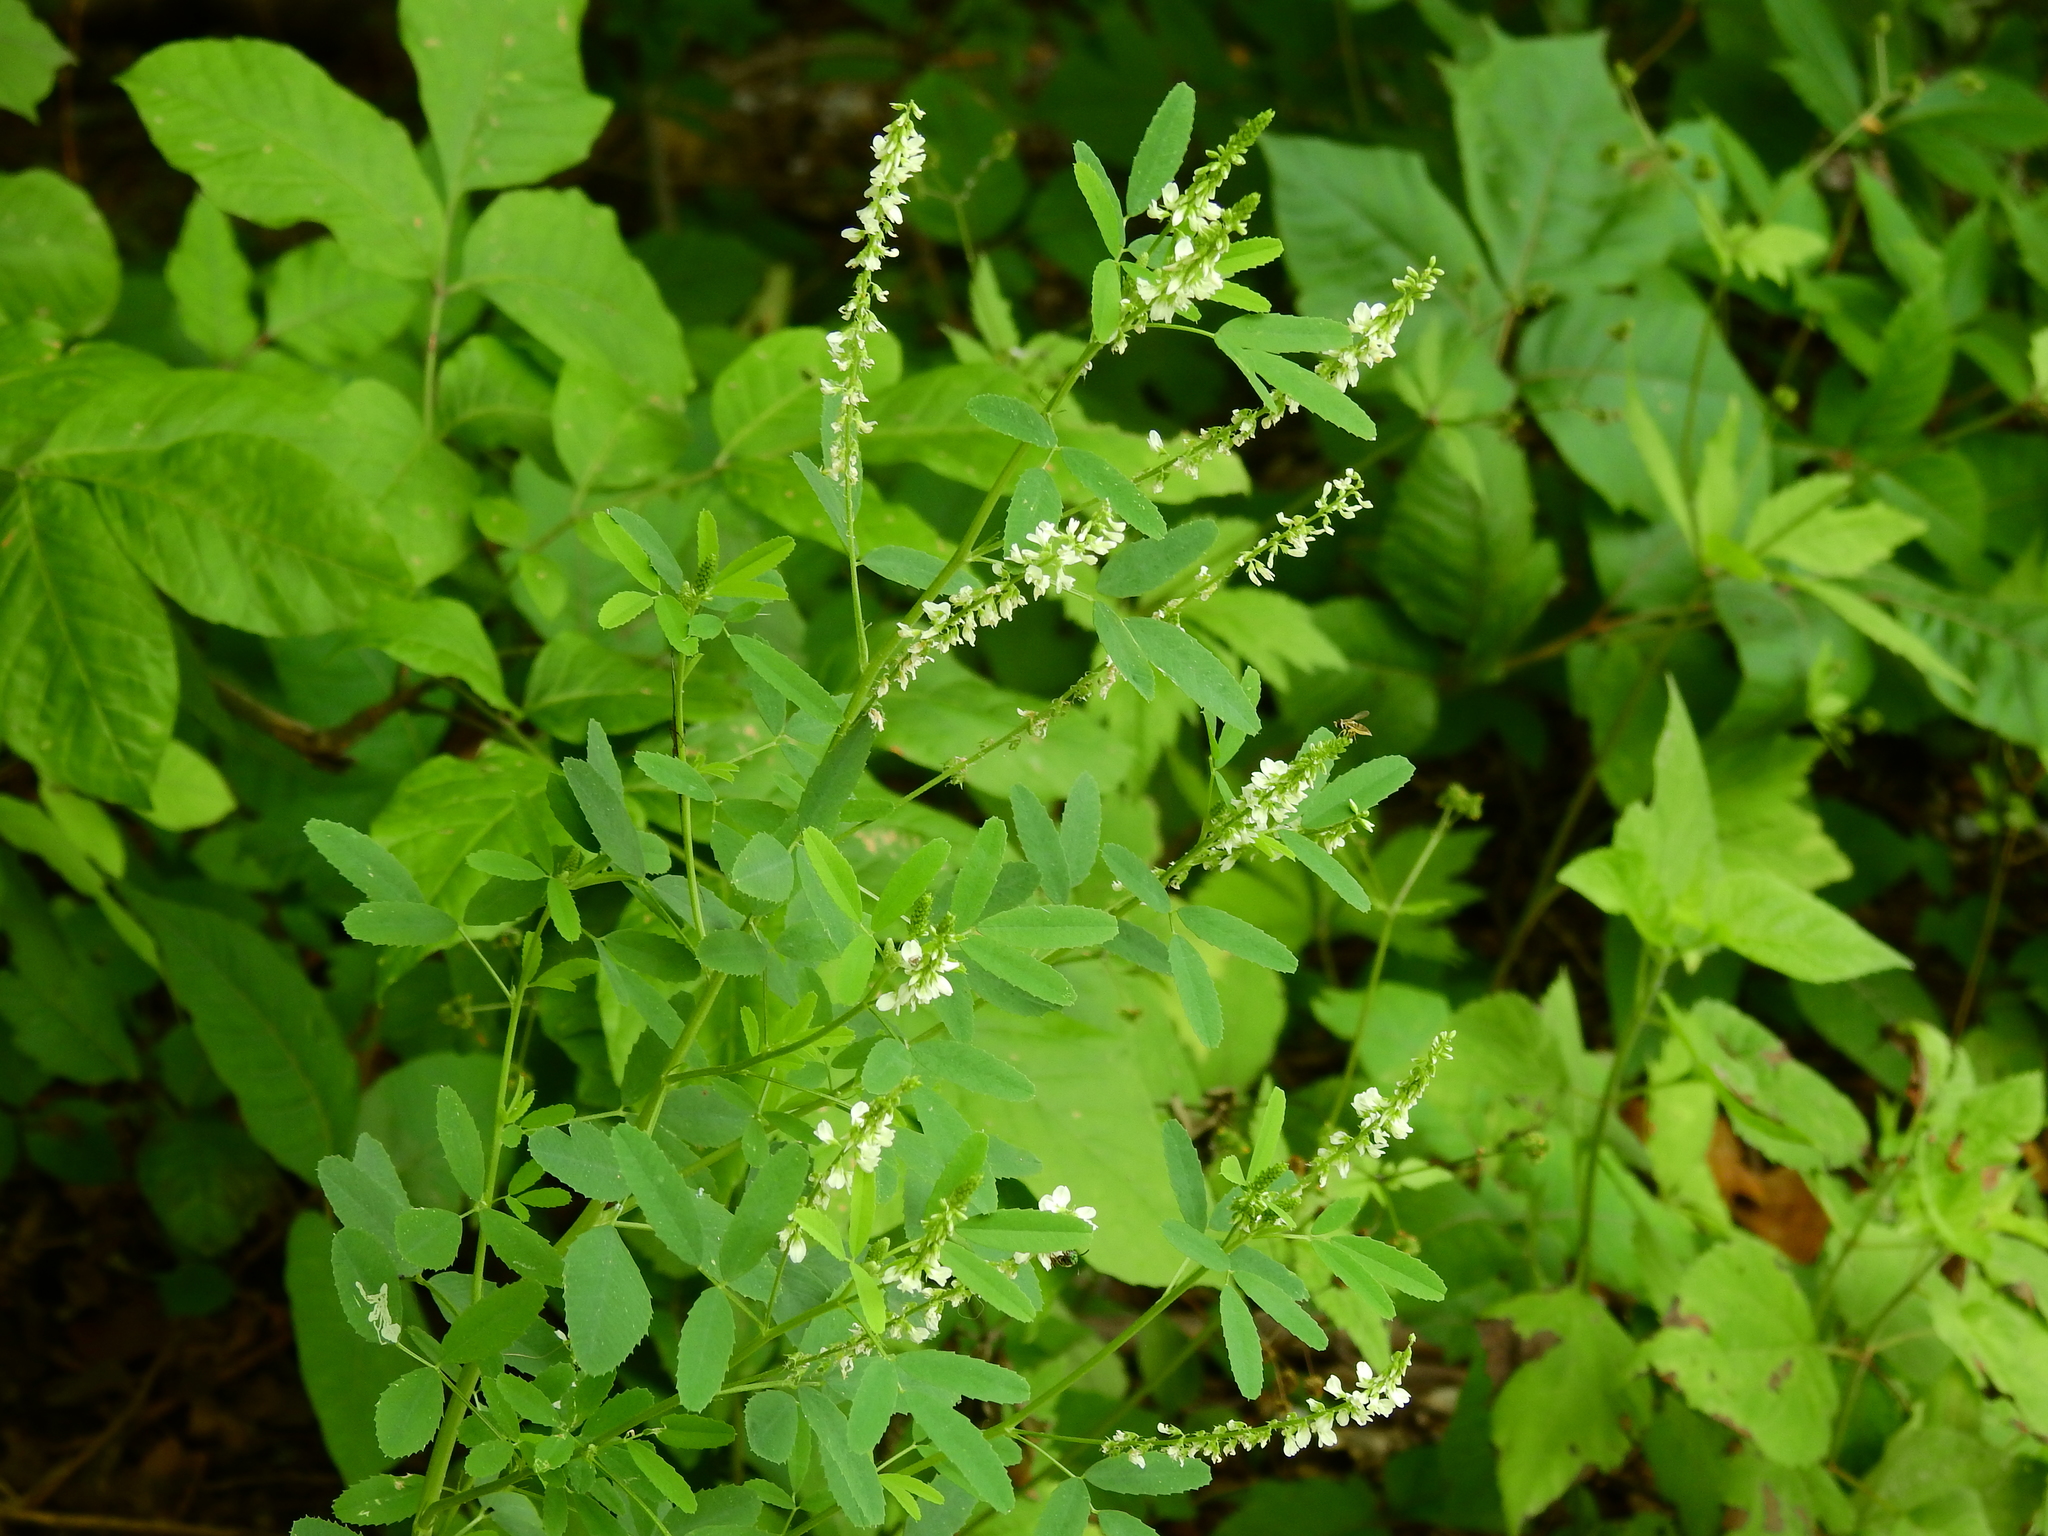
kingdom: Plantae
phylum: Tracheophyta
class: Magnoliopsida
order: Fabales
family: Fabaceae
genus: Melilotus
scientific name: Melilotus albus
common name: White melilot
